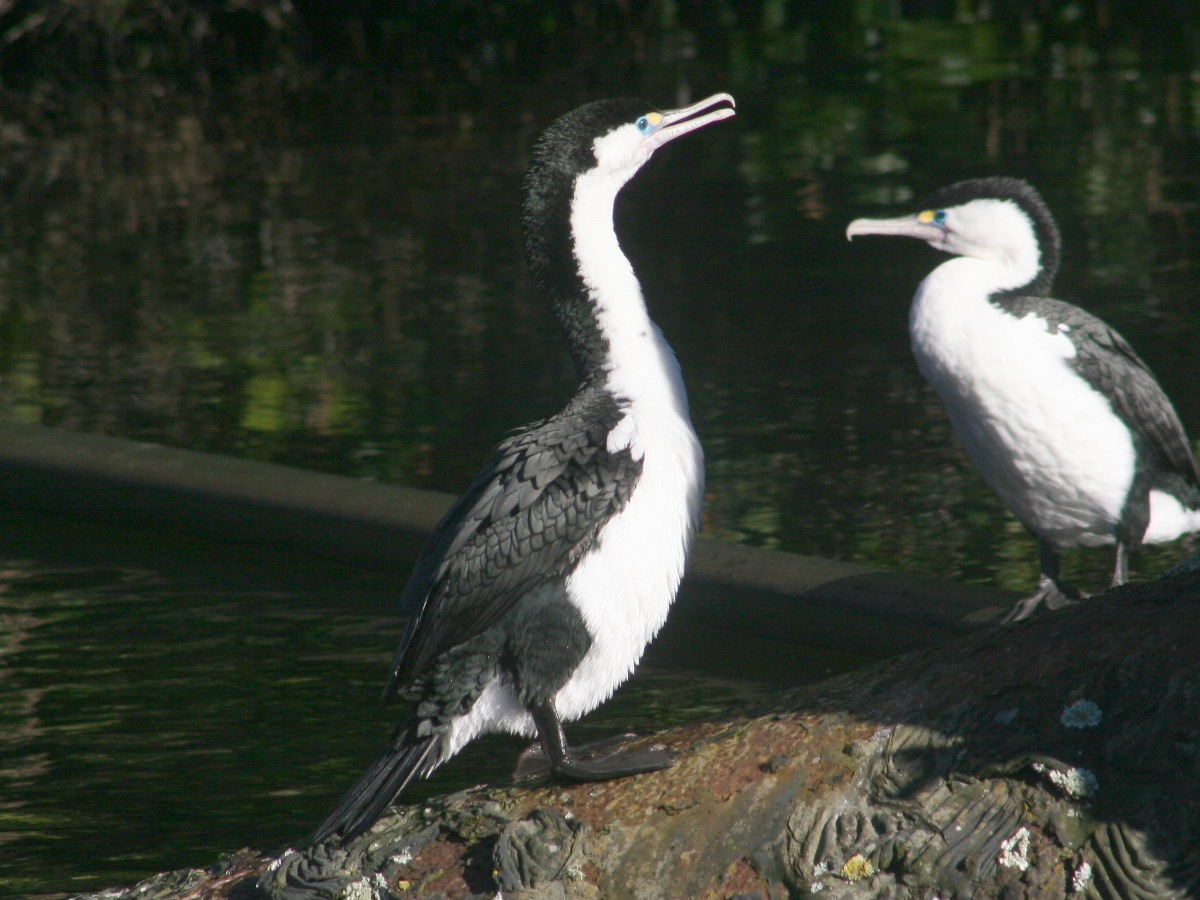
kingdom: Animalia
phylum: Chordata
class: Aves
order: Suliformes
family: Phalacrocoracidae
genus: Phalacrocorax
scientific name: Phalacrocorax varius
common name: Pied cormorant
